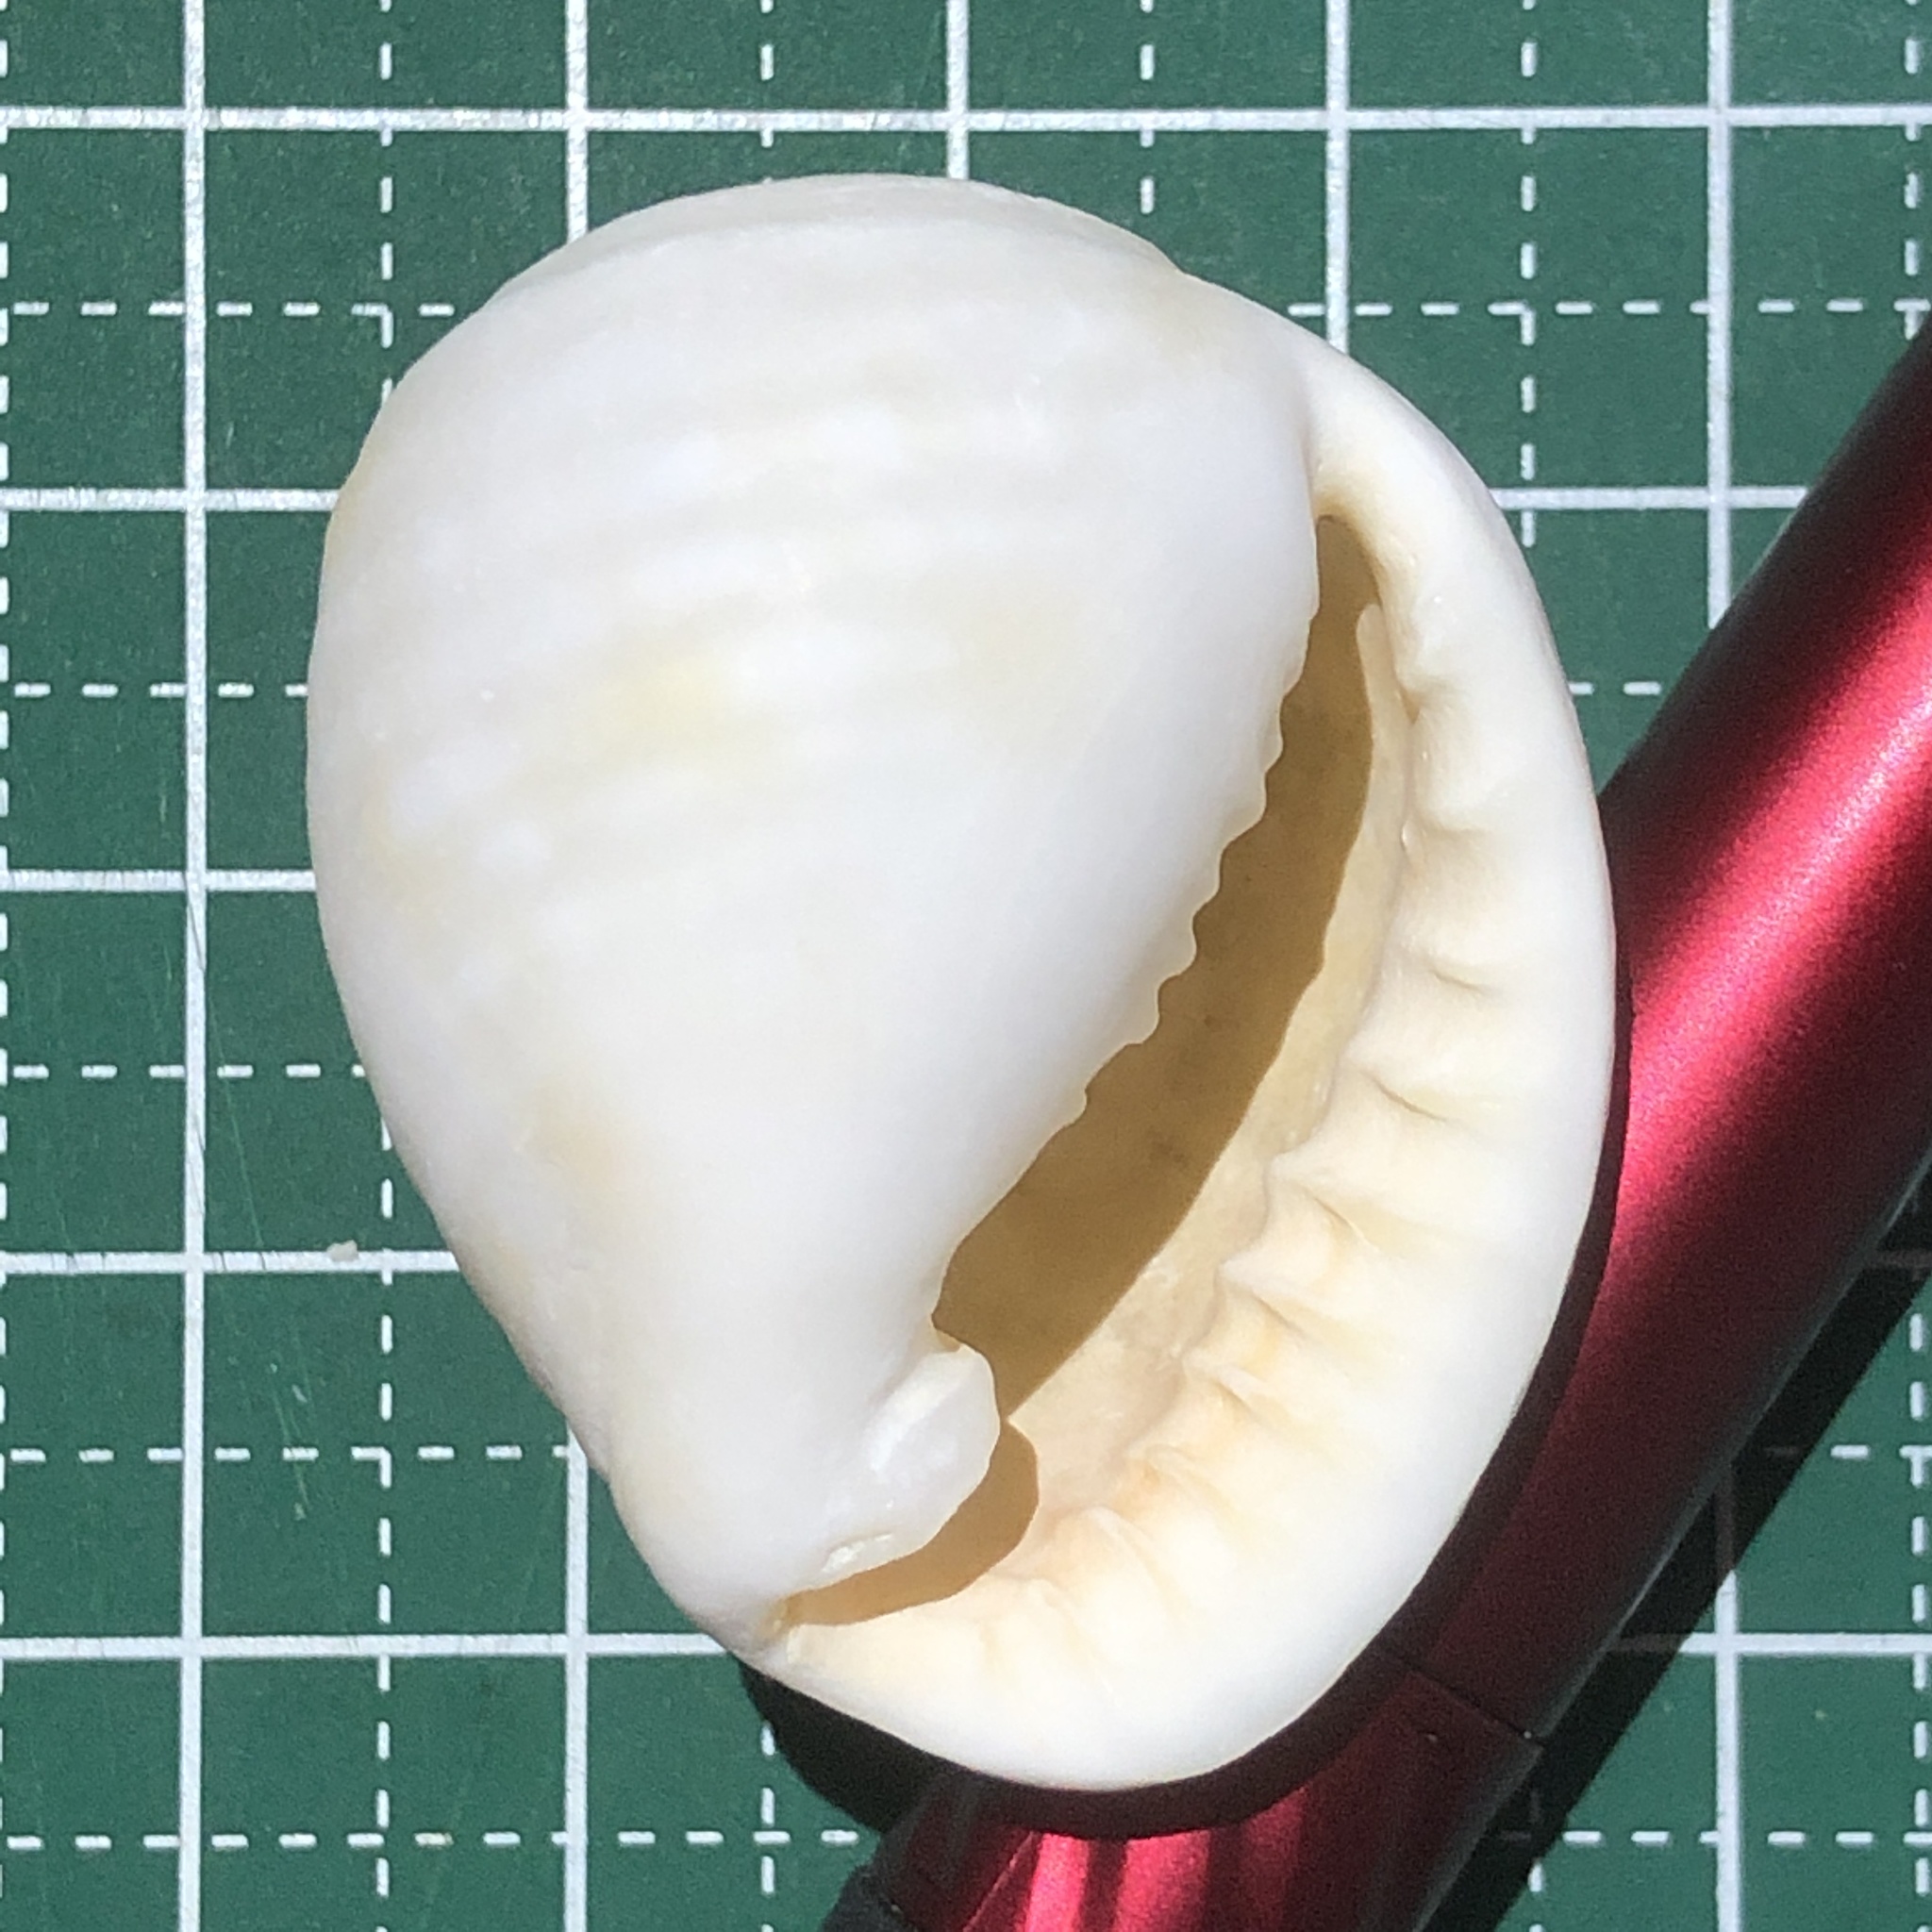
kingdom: Animalia
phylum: Mollusca
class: Gastropoda
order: Littorinimorpha
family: Tonnidae
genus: Malea
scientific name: Malea pomum
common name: Pacific grinning tun
